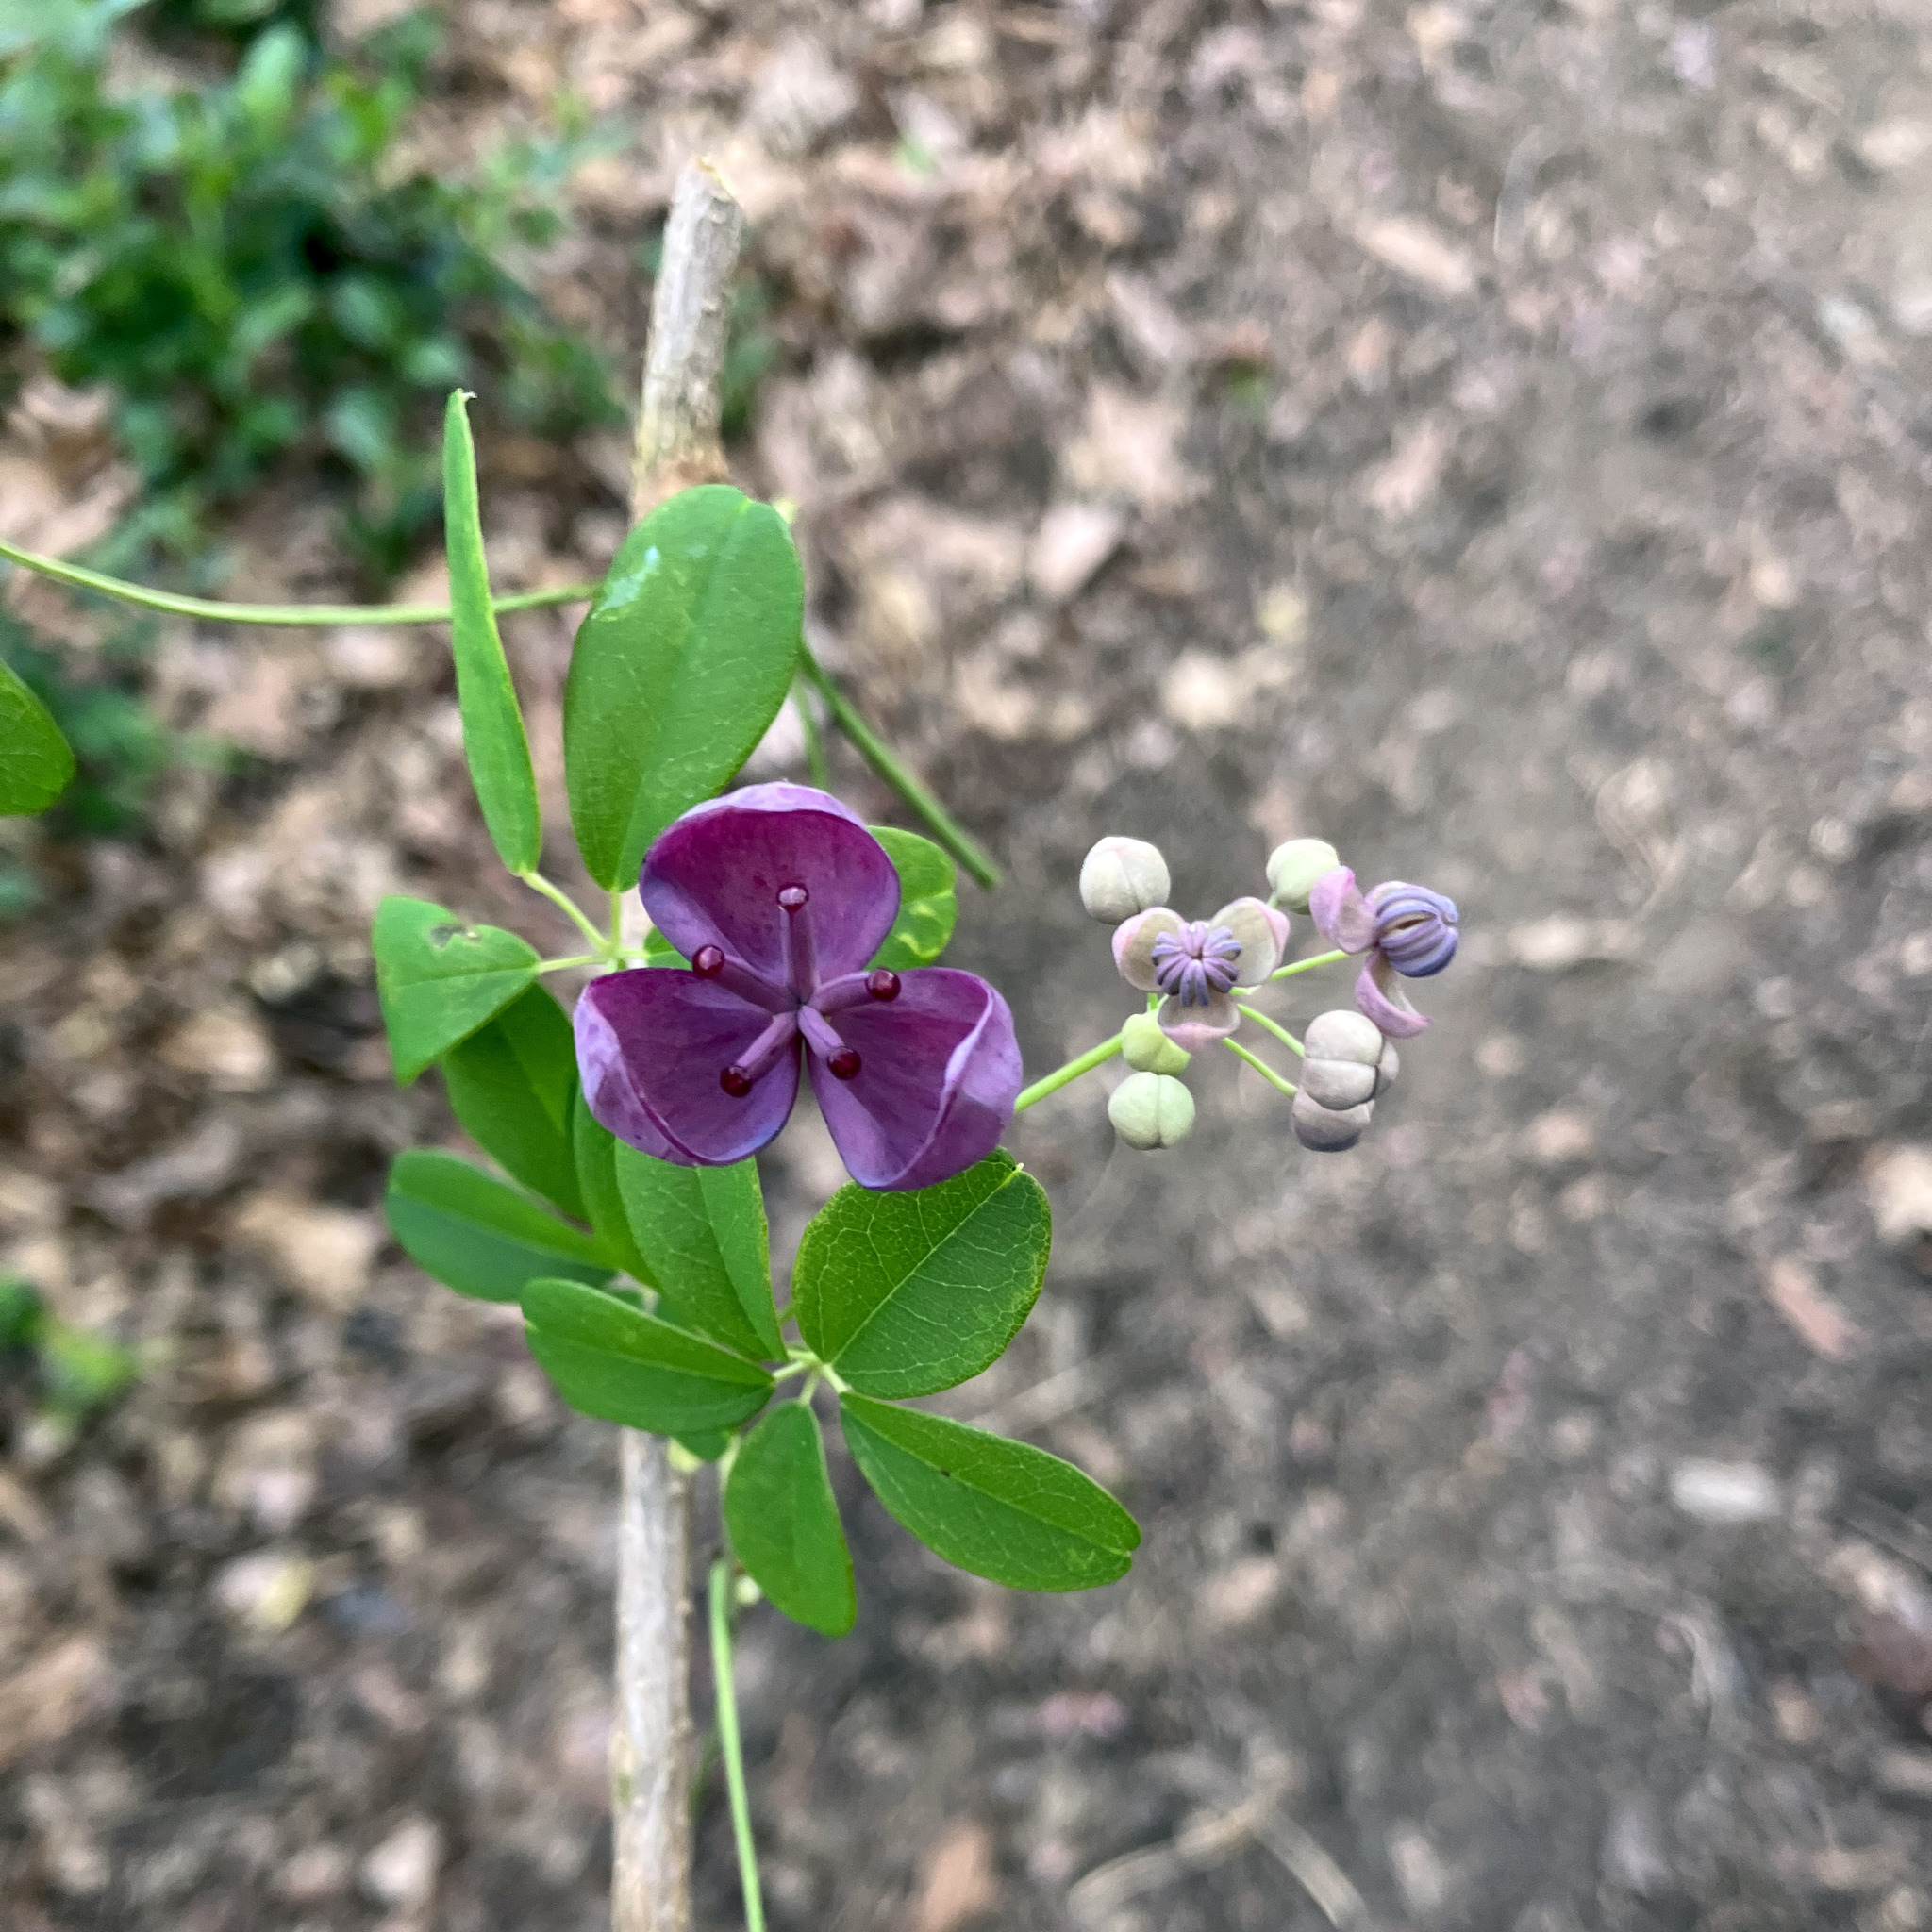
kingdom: Plantae
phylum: Tracheophyta
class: Magnoliopsida
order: Ranunculales
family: Lardizabalaceae
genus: Akebia
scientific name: Akebia quinata
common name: Five-leaf akebia
